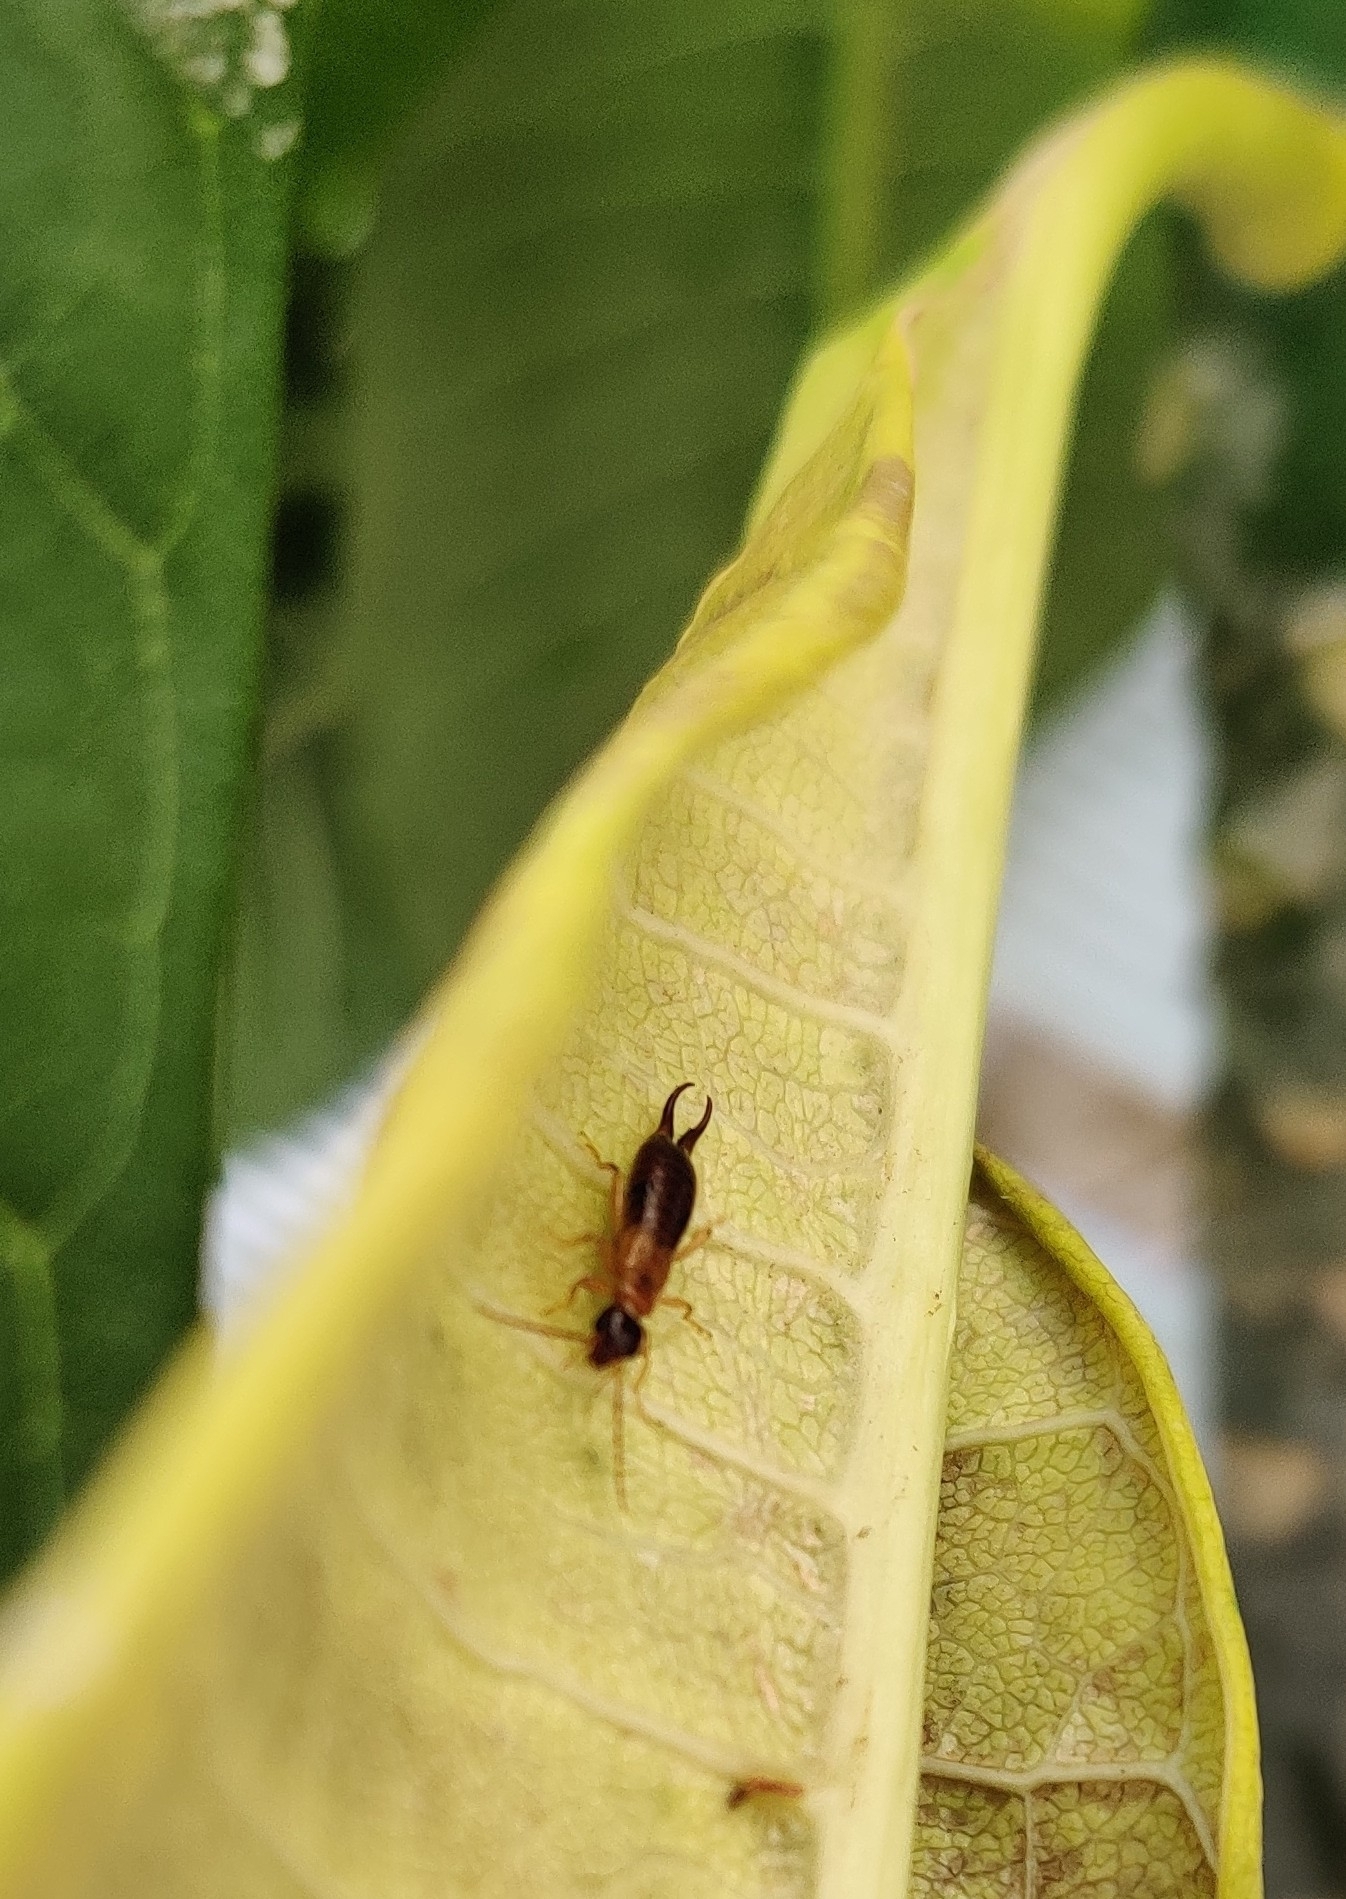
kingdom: Animalia
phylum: Arthropoda
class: Insecta
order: Dermaptera
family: Forficulidae
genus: Guanchia
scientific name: Guanchia pubescens
